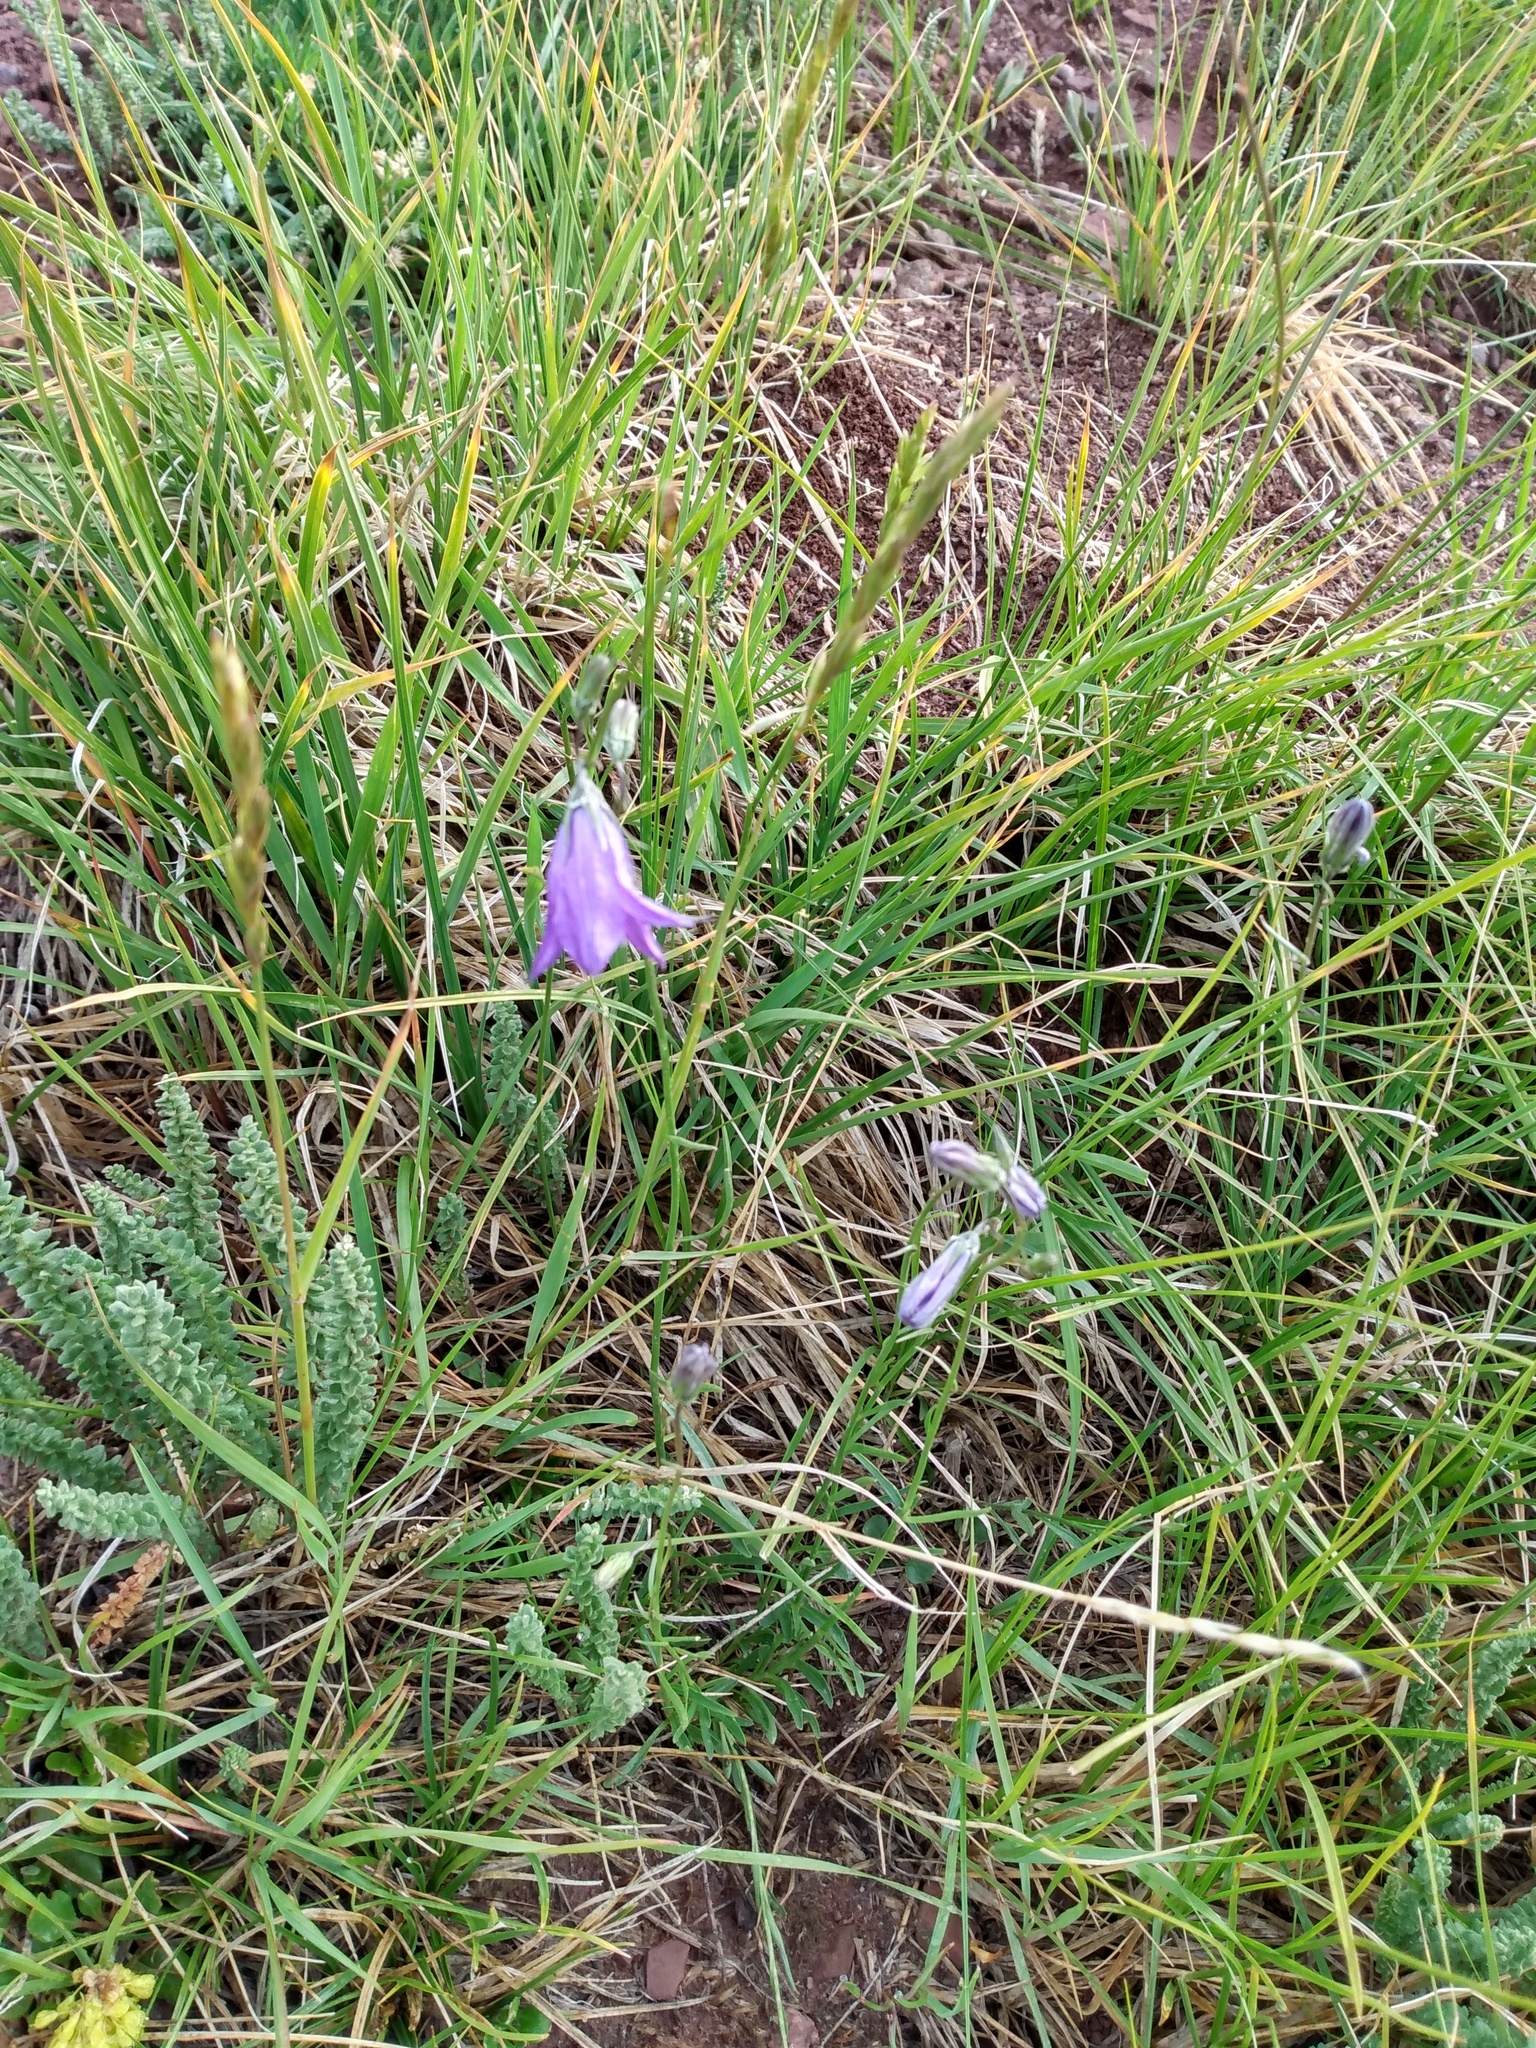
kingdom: Plantae
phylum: Tracheophyta
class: Magnoliopsida
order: Asterales
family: Campanulaceae
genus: Campanula
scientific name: Campanula petiolata
